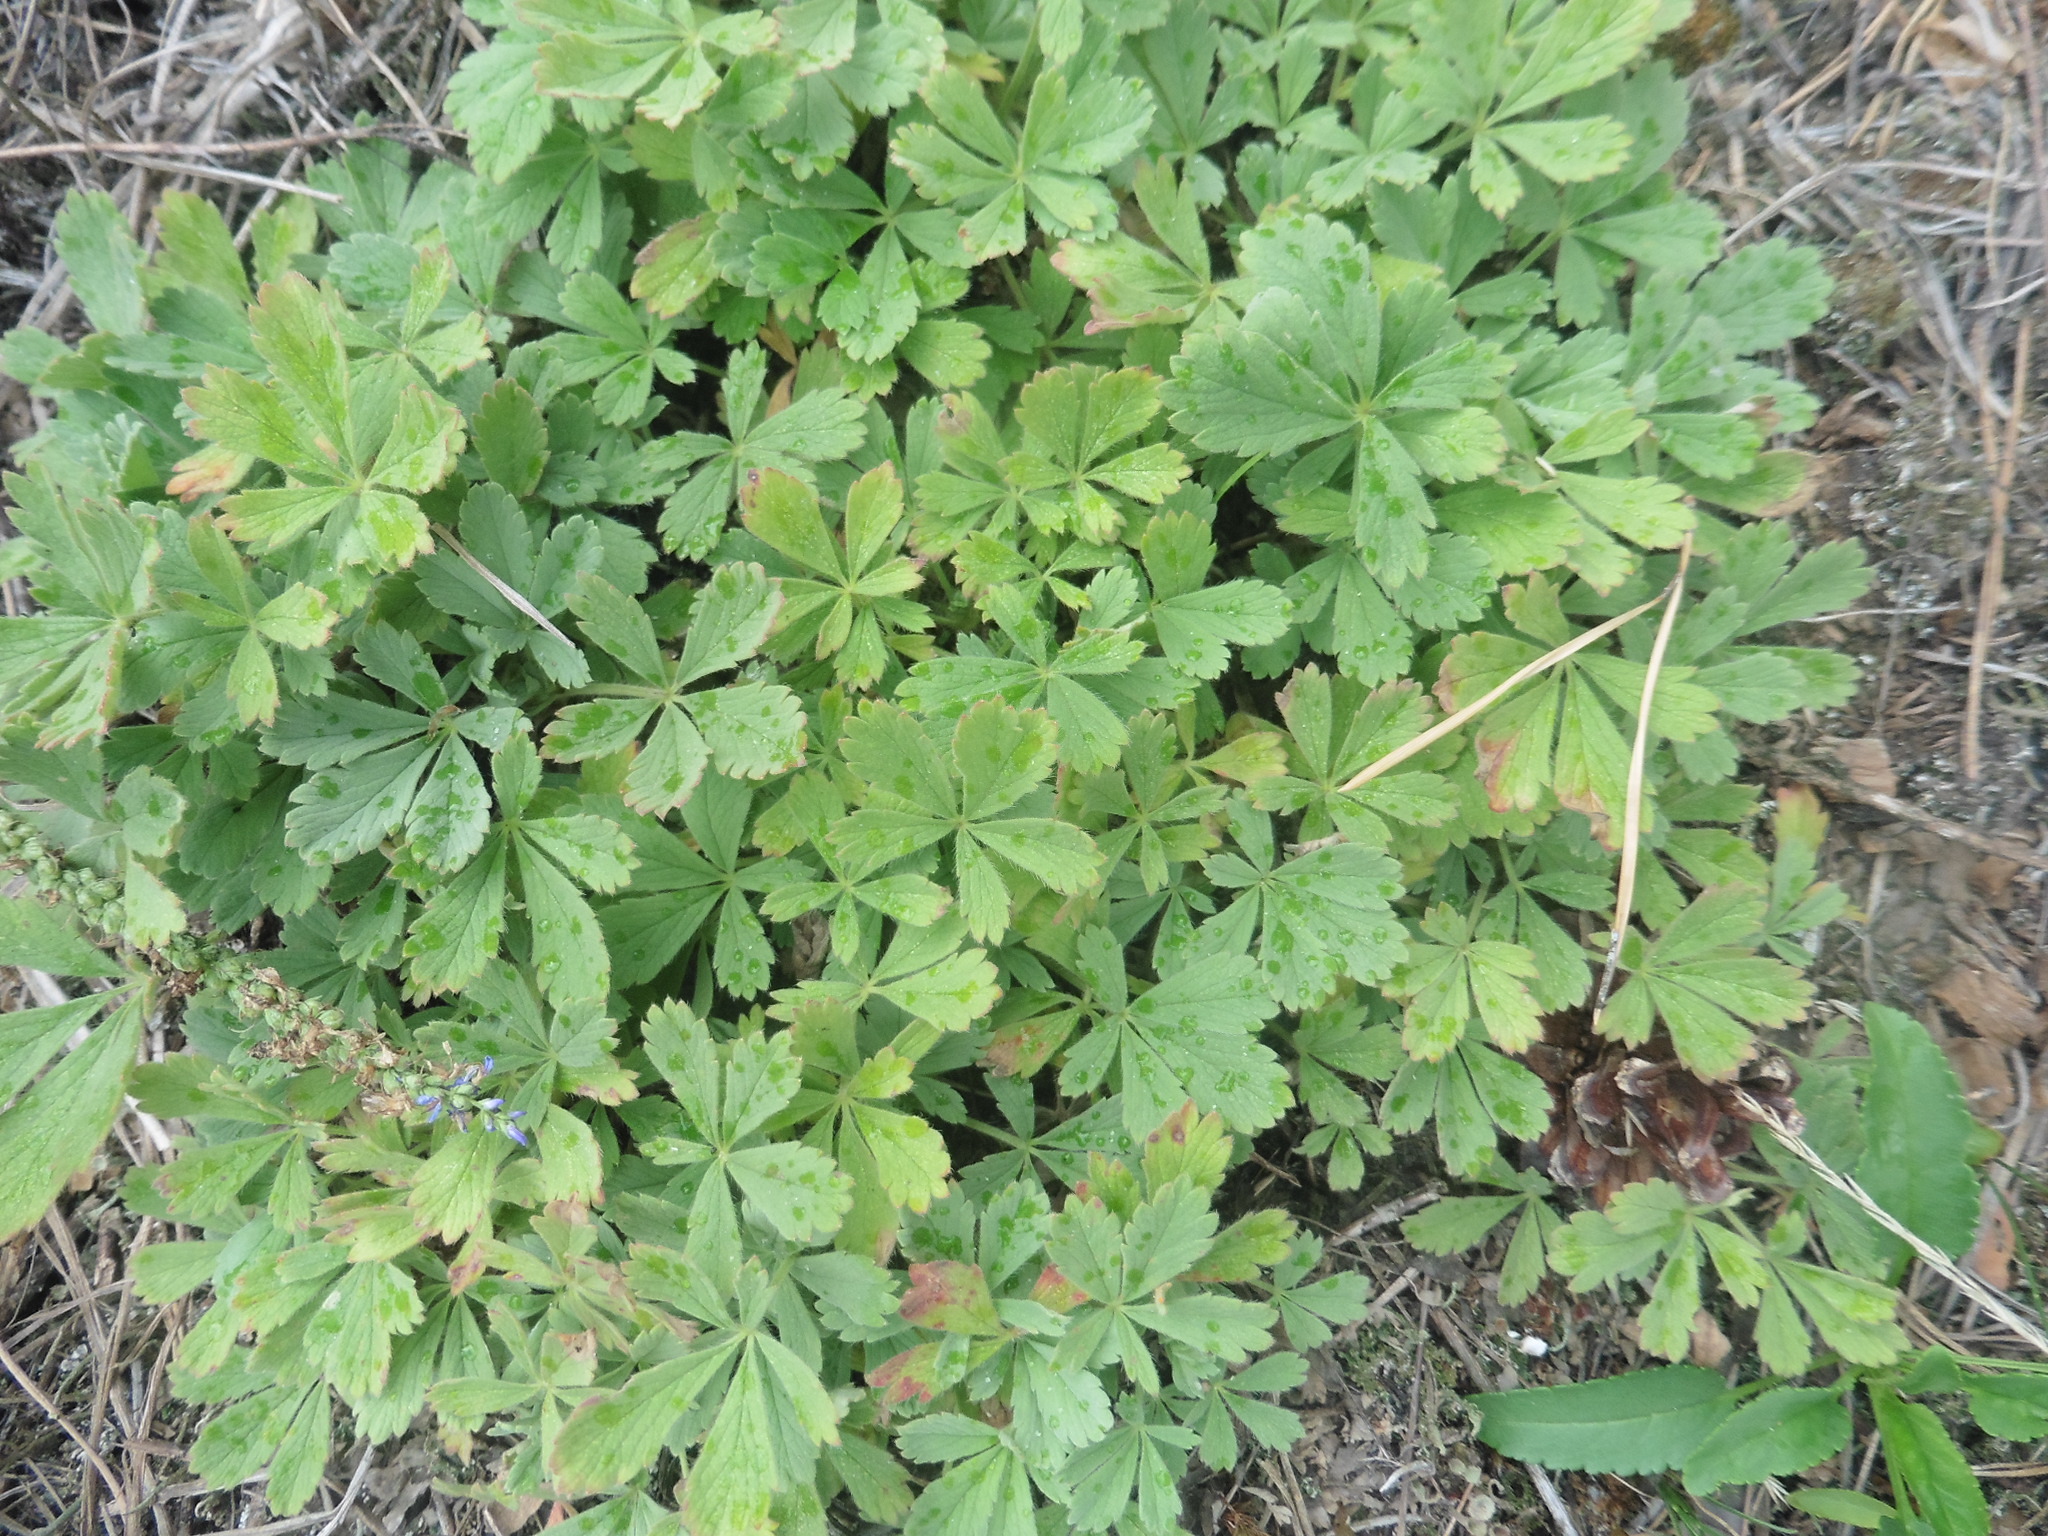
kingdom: Plantae
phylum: Tracheophyta
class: Magnoliopsida
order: Rosales
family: Rosaceae
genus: Potentilla
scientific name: Potentilla incana
